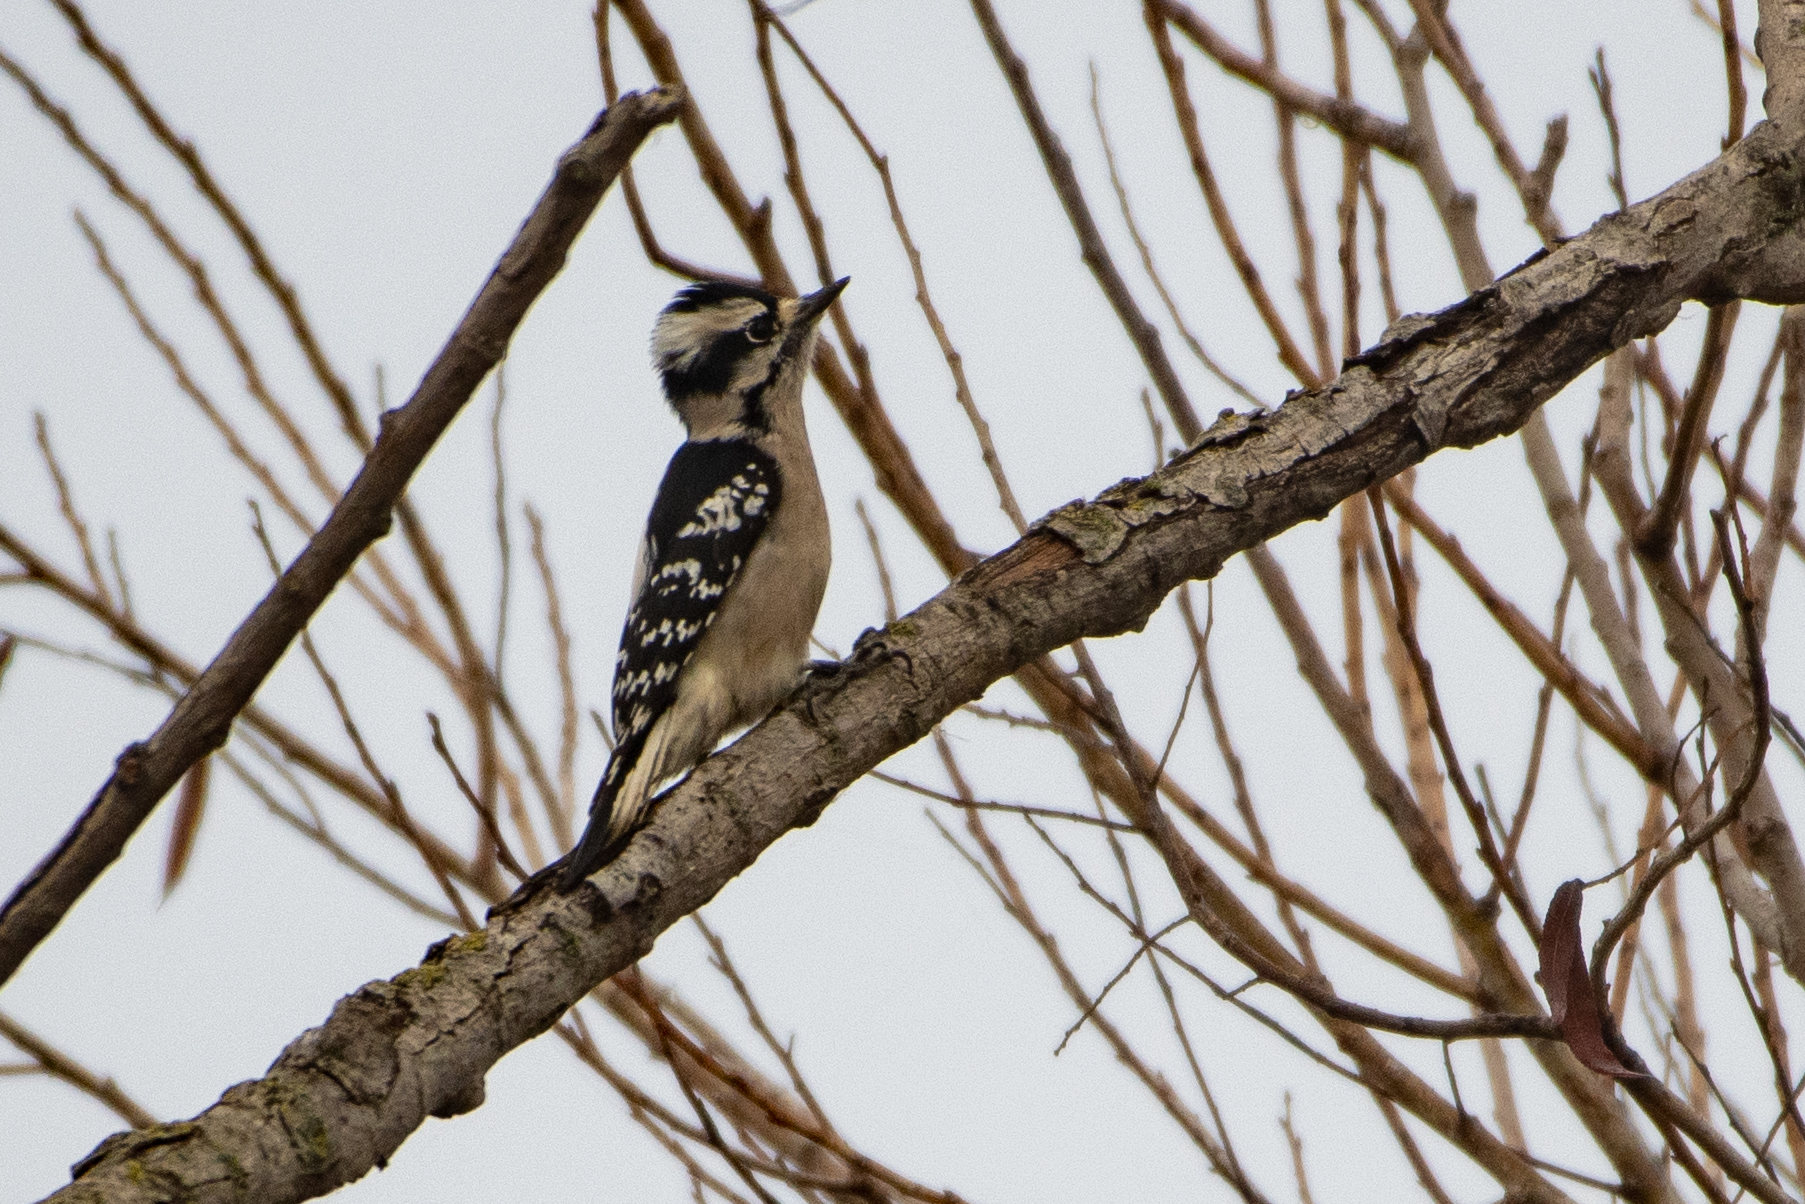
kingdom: Animalia
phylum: Chordata
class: Aves
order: Piciformes
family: Picidae
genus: Dryobates
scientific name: Dryobates pubescens
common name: Downy woodpecker
